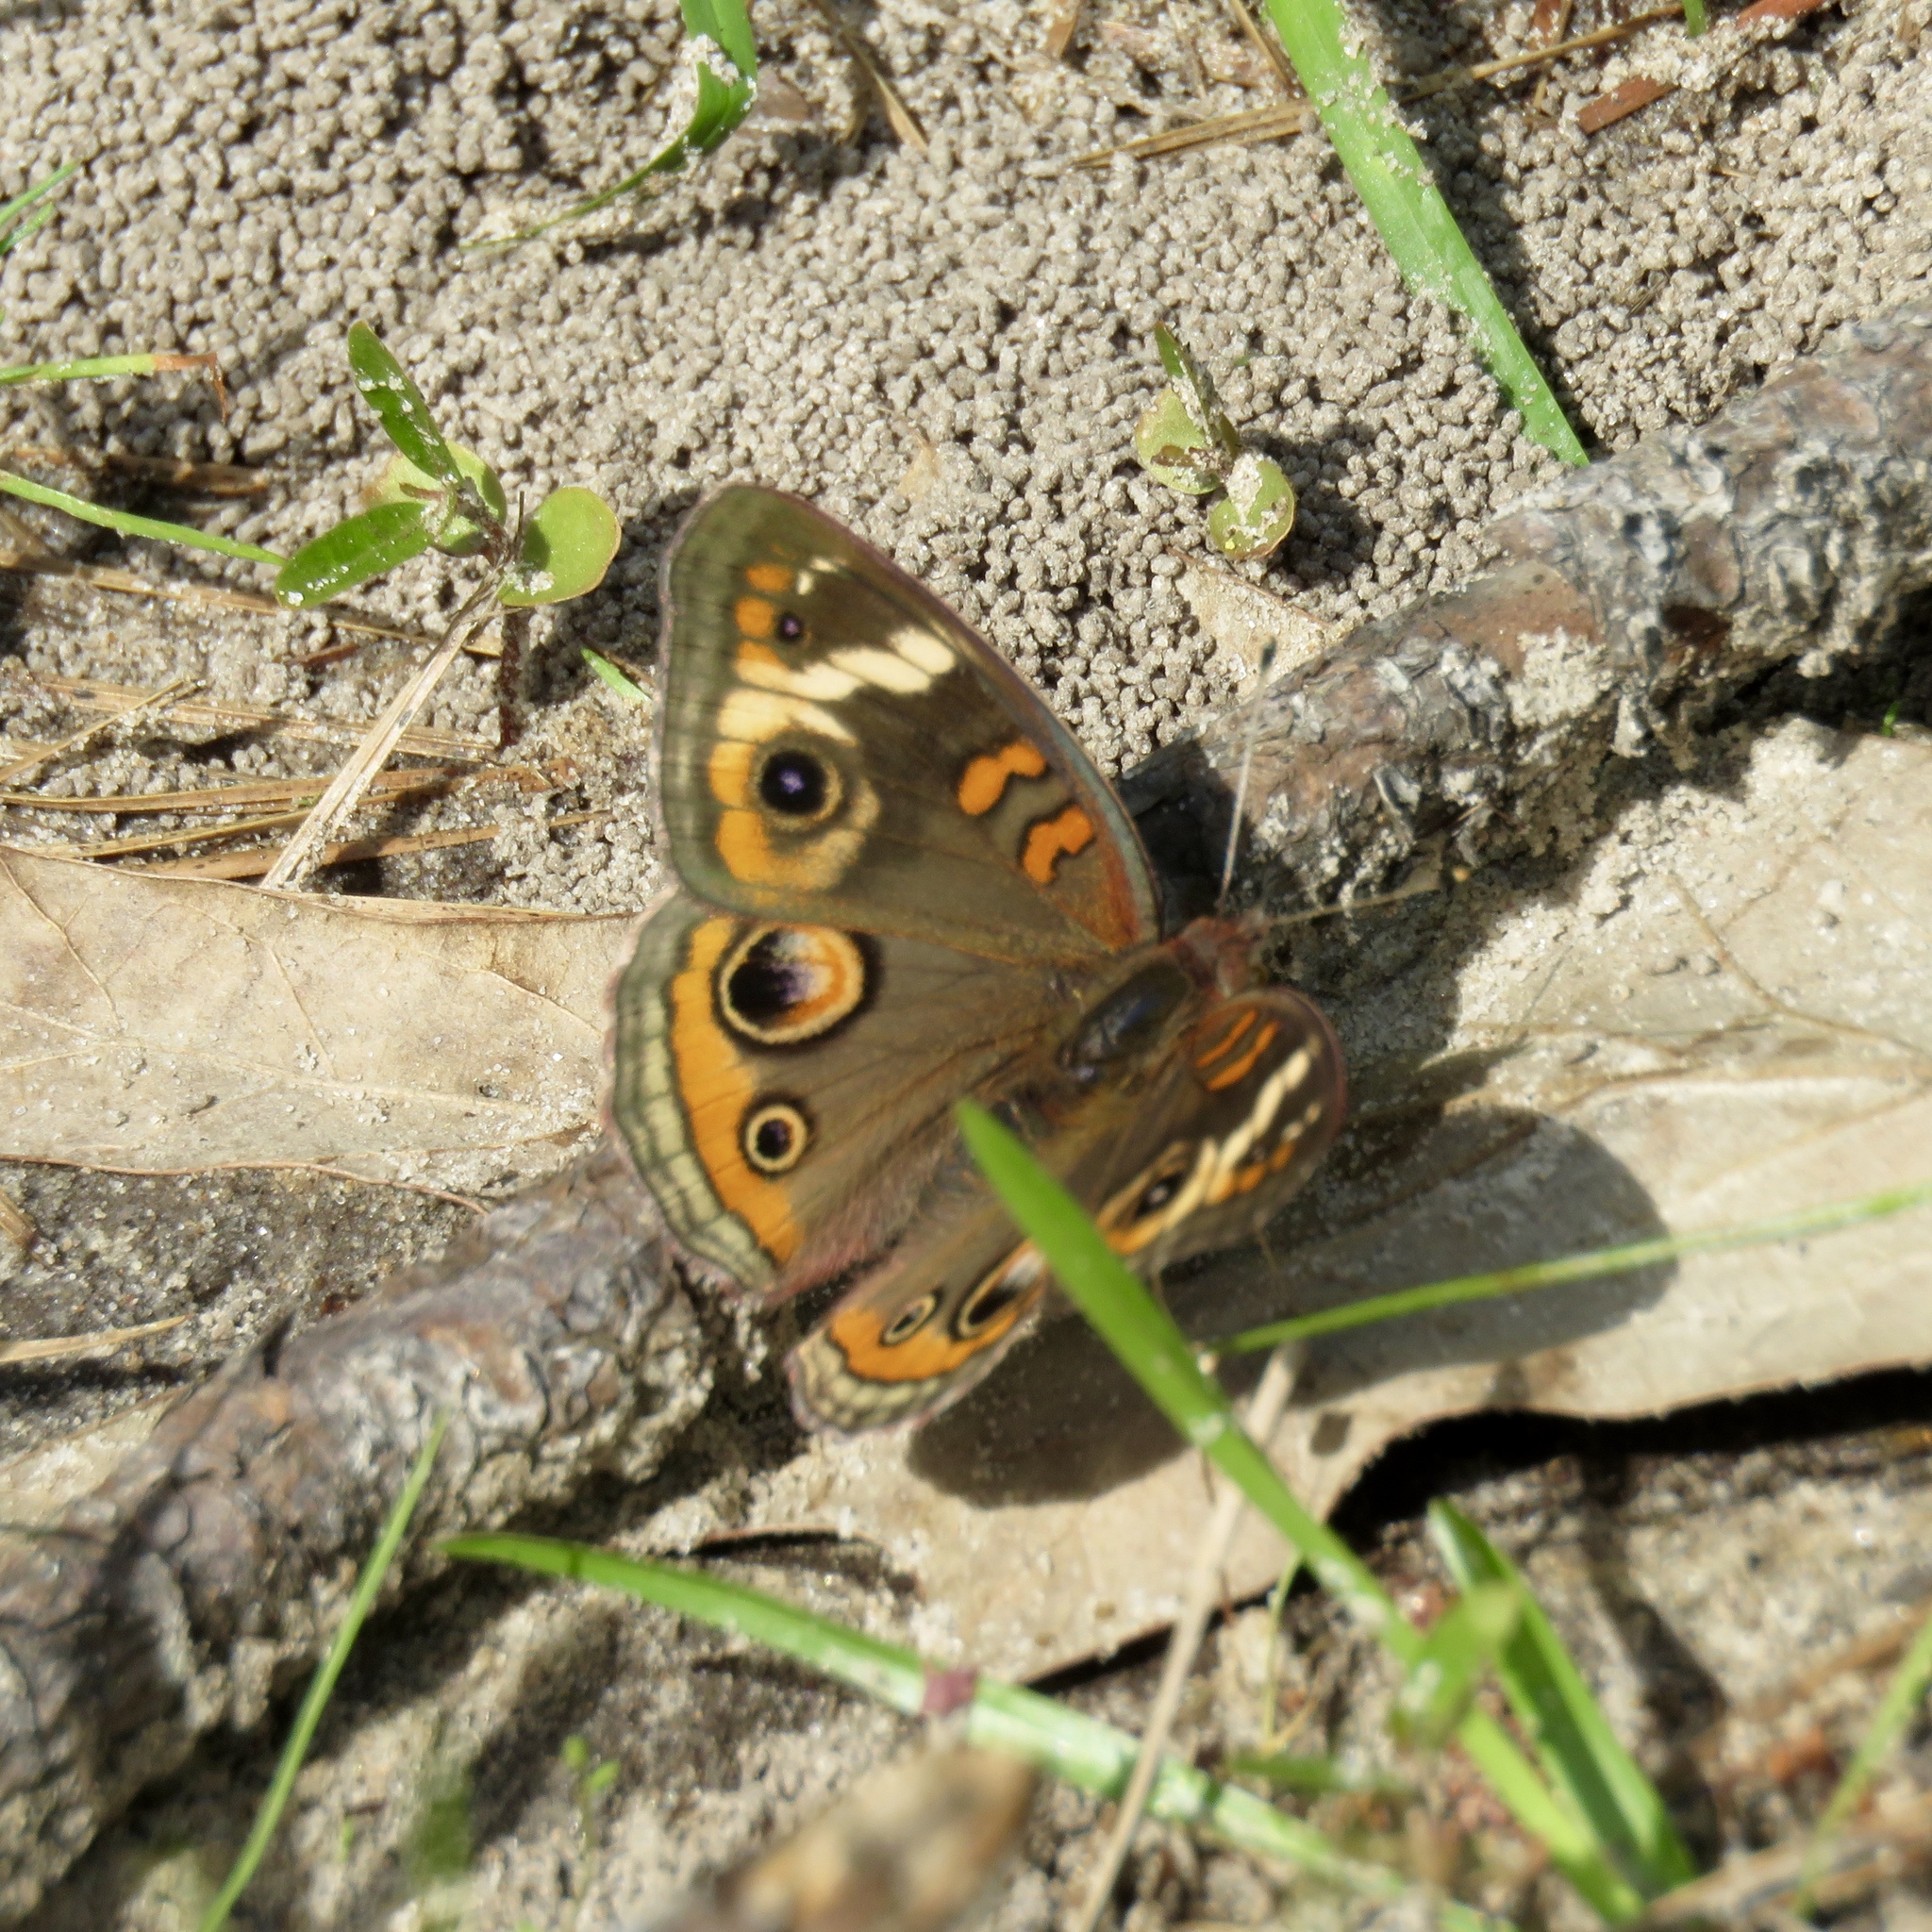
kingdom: Animalia
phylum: Arthropoda
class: Insecta
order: Lepidoptera
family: Nymphalidae
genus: Junonia
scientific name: Junonia coenia
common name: Common buckeye
